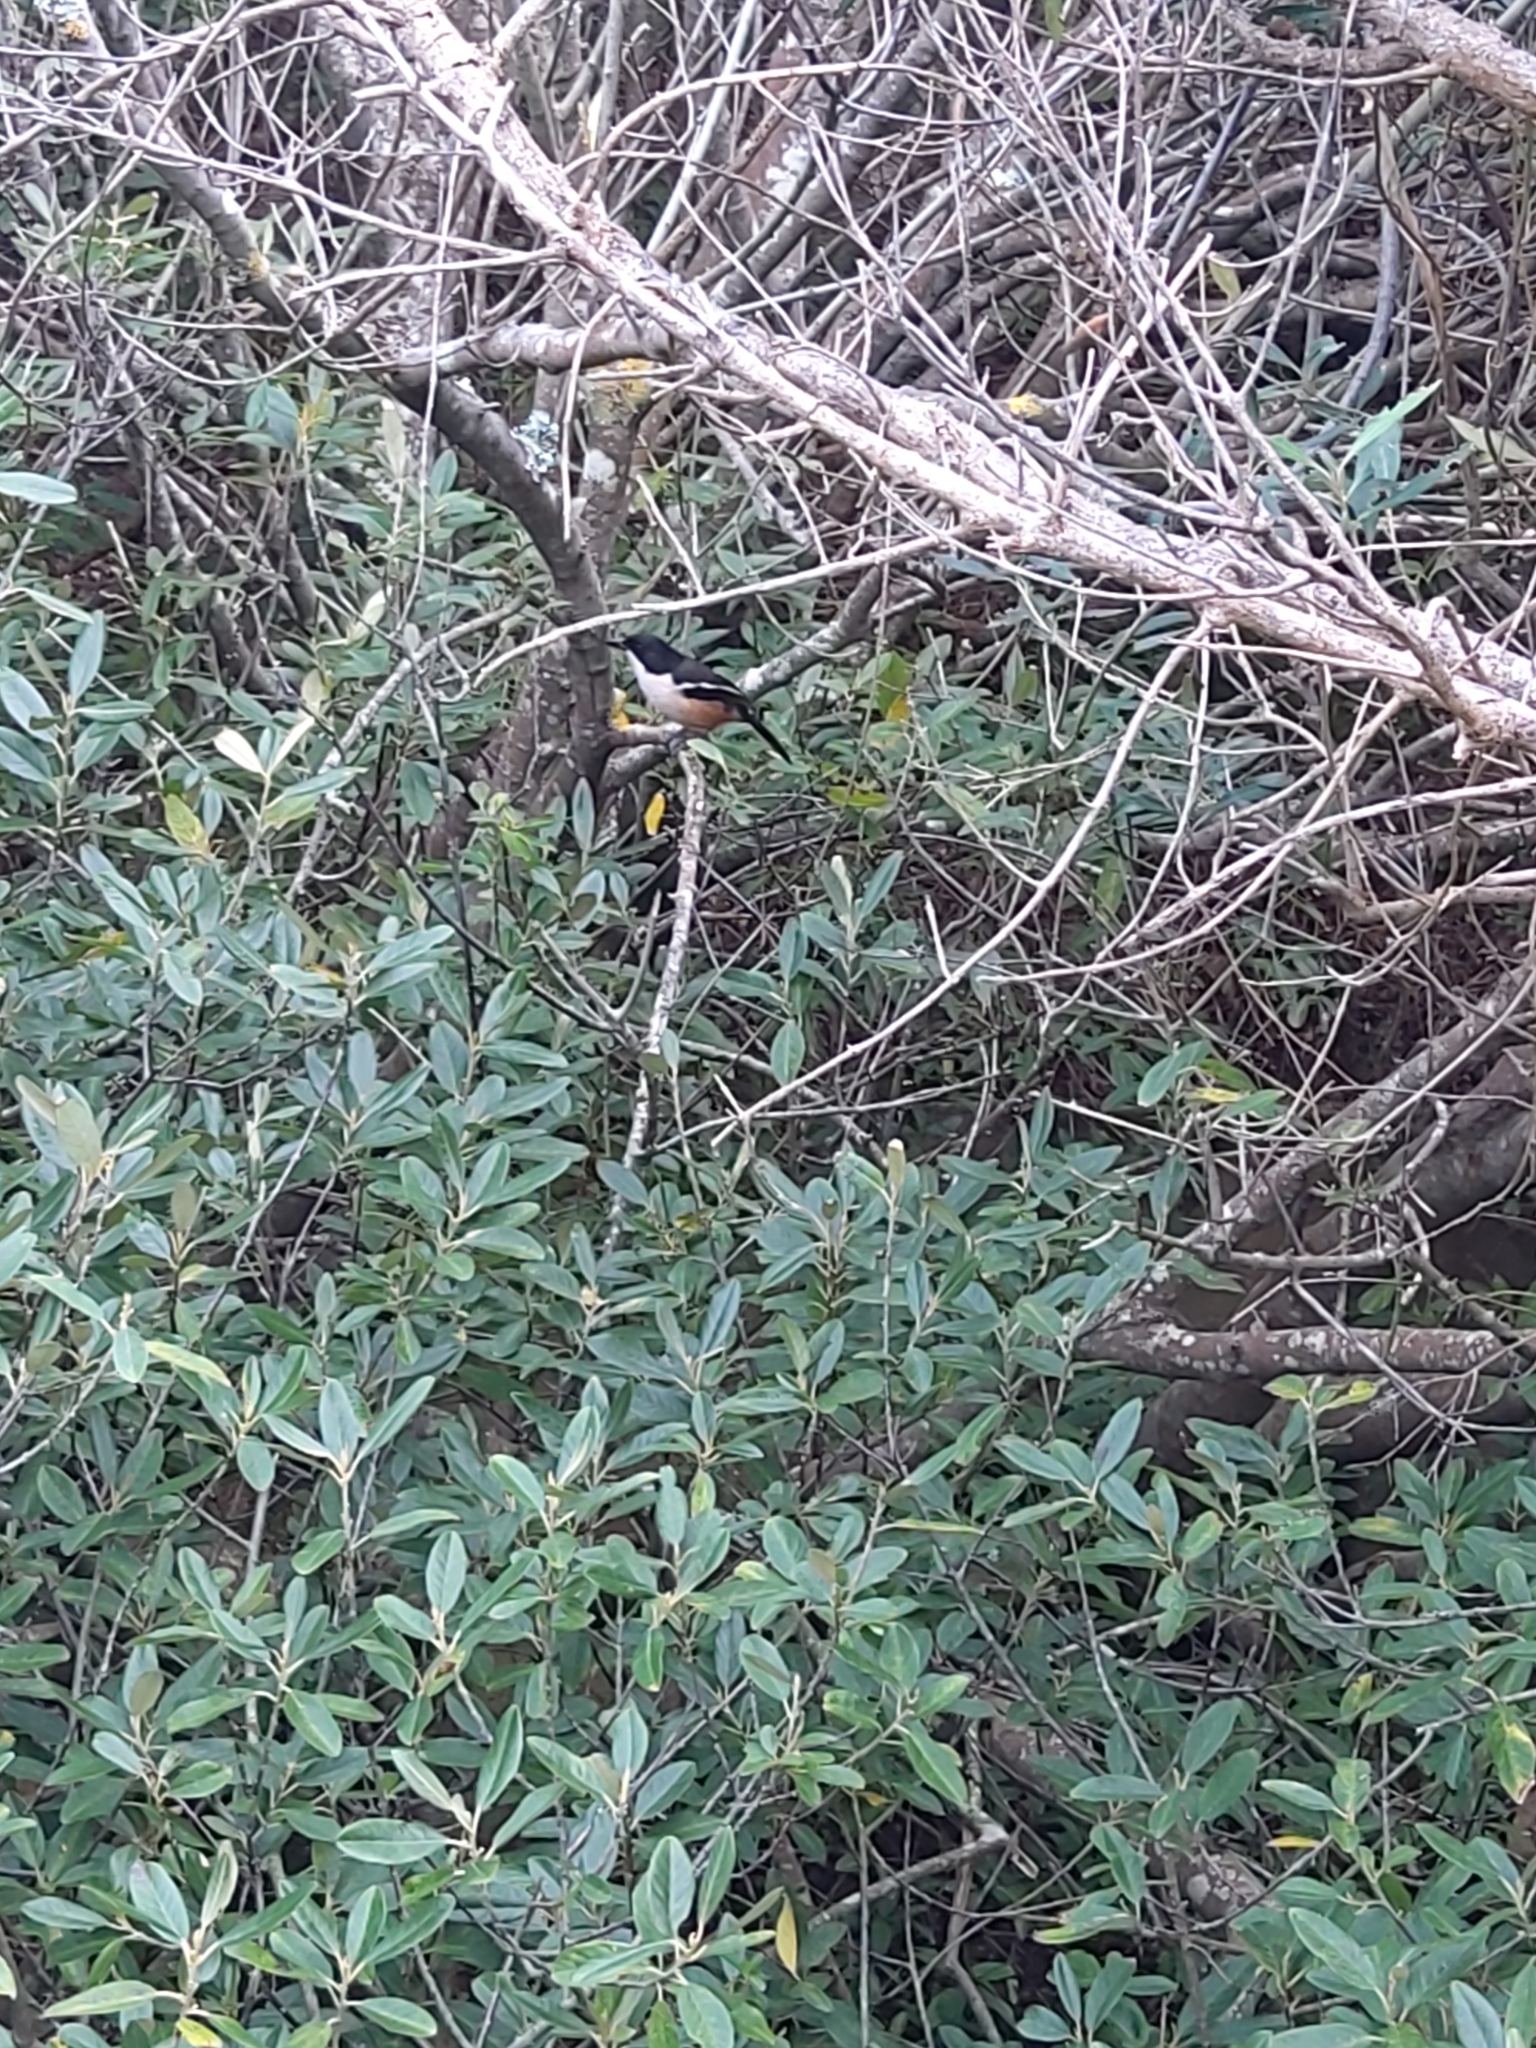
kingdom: Animalia
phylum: Chordata
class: Aves
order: Passeriformes
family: Malaconotidae
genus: Laniarius
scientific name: Laniarius ferrugineus
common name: Southern boubou
